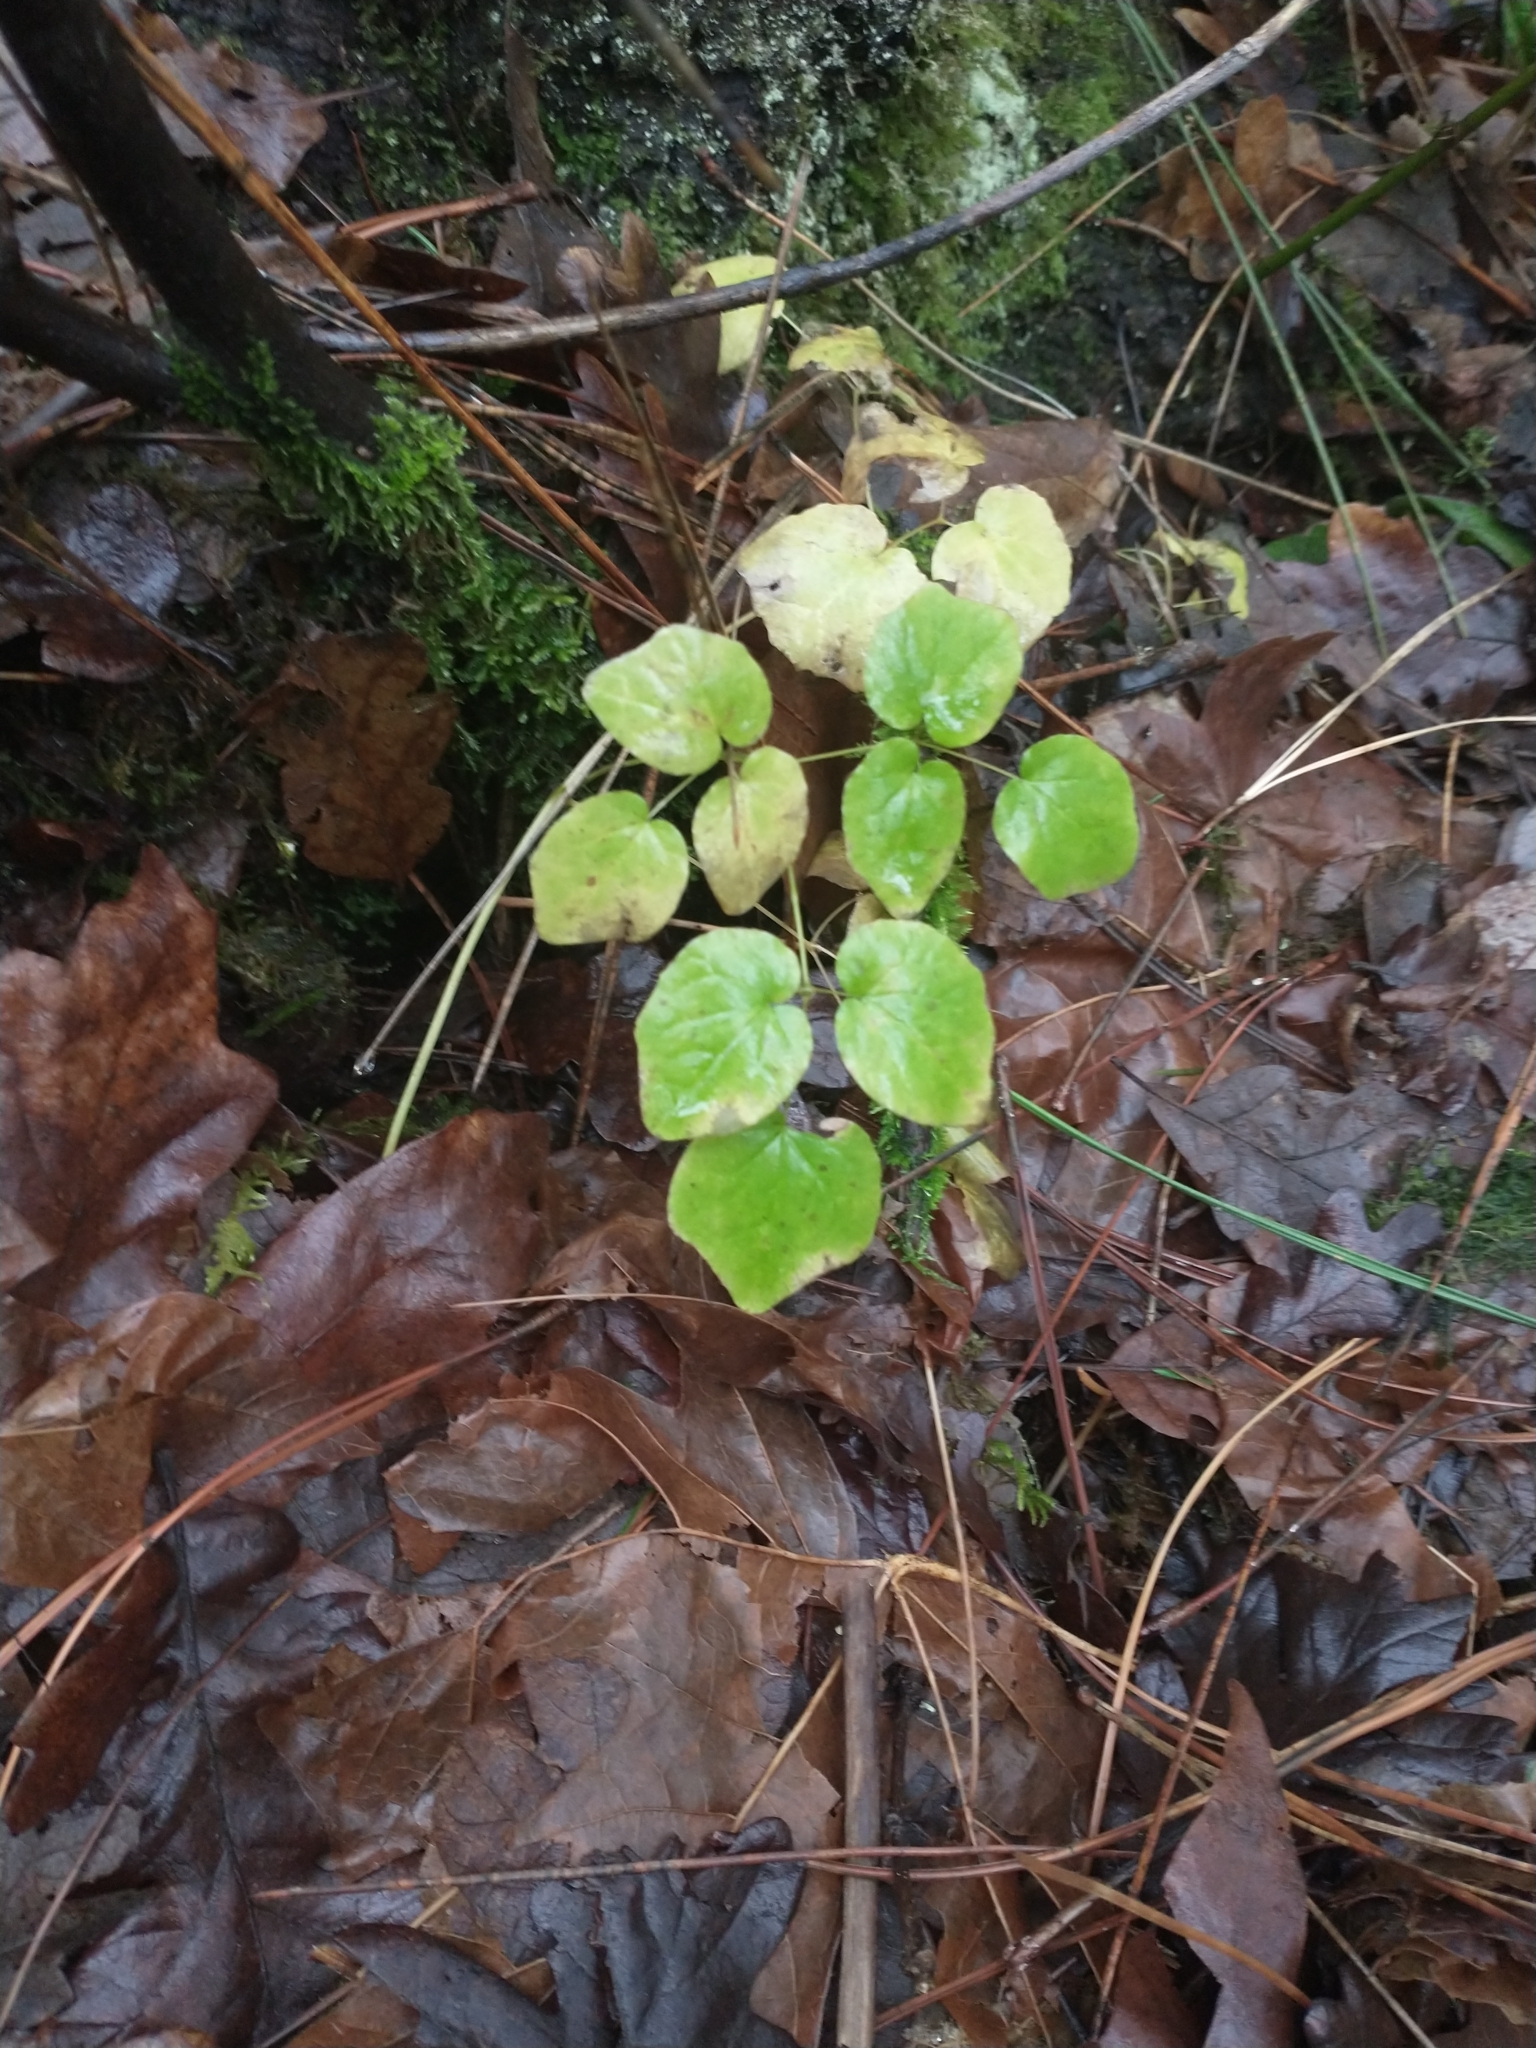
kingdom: Plantae
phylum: Tracheophyta
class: Magnoliopsida
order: Ranunculales
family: Berberidaceae
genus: Vancouveria
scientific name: Vancouveria hexandra
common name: Northern inside-out-flower
